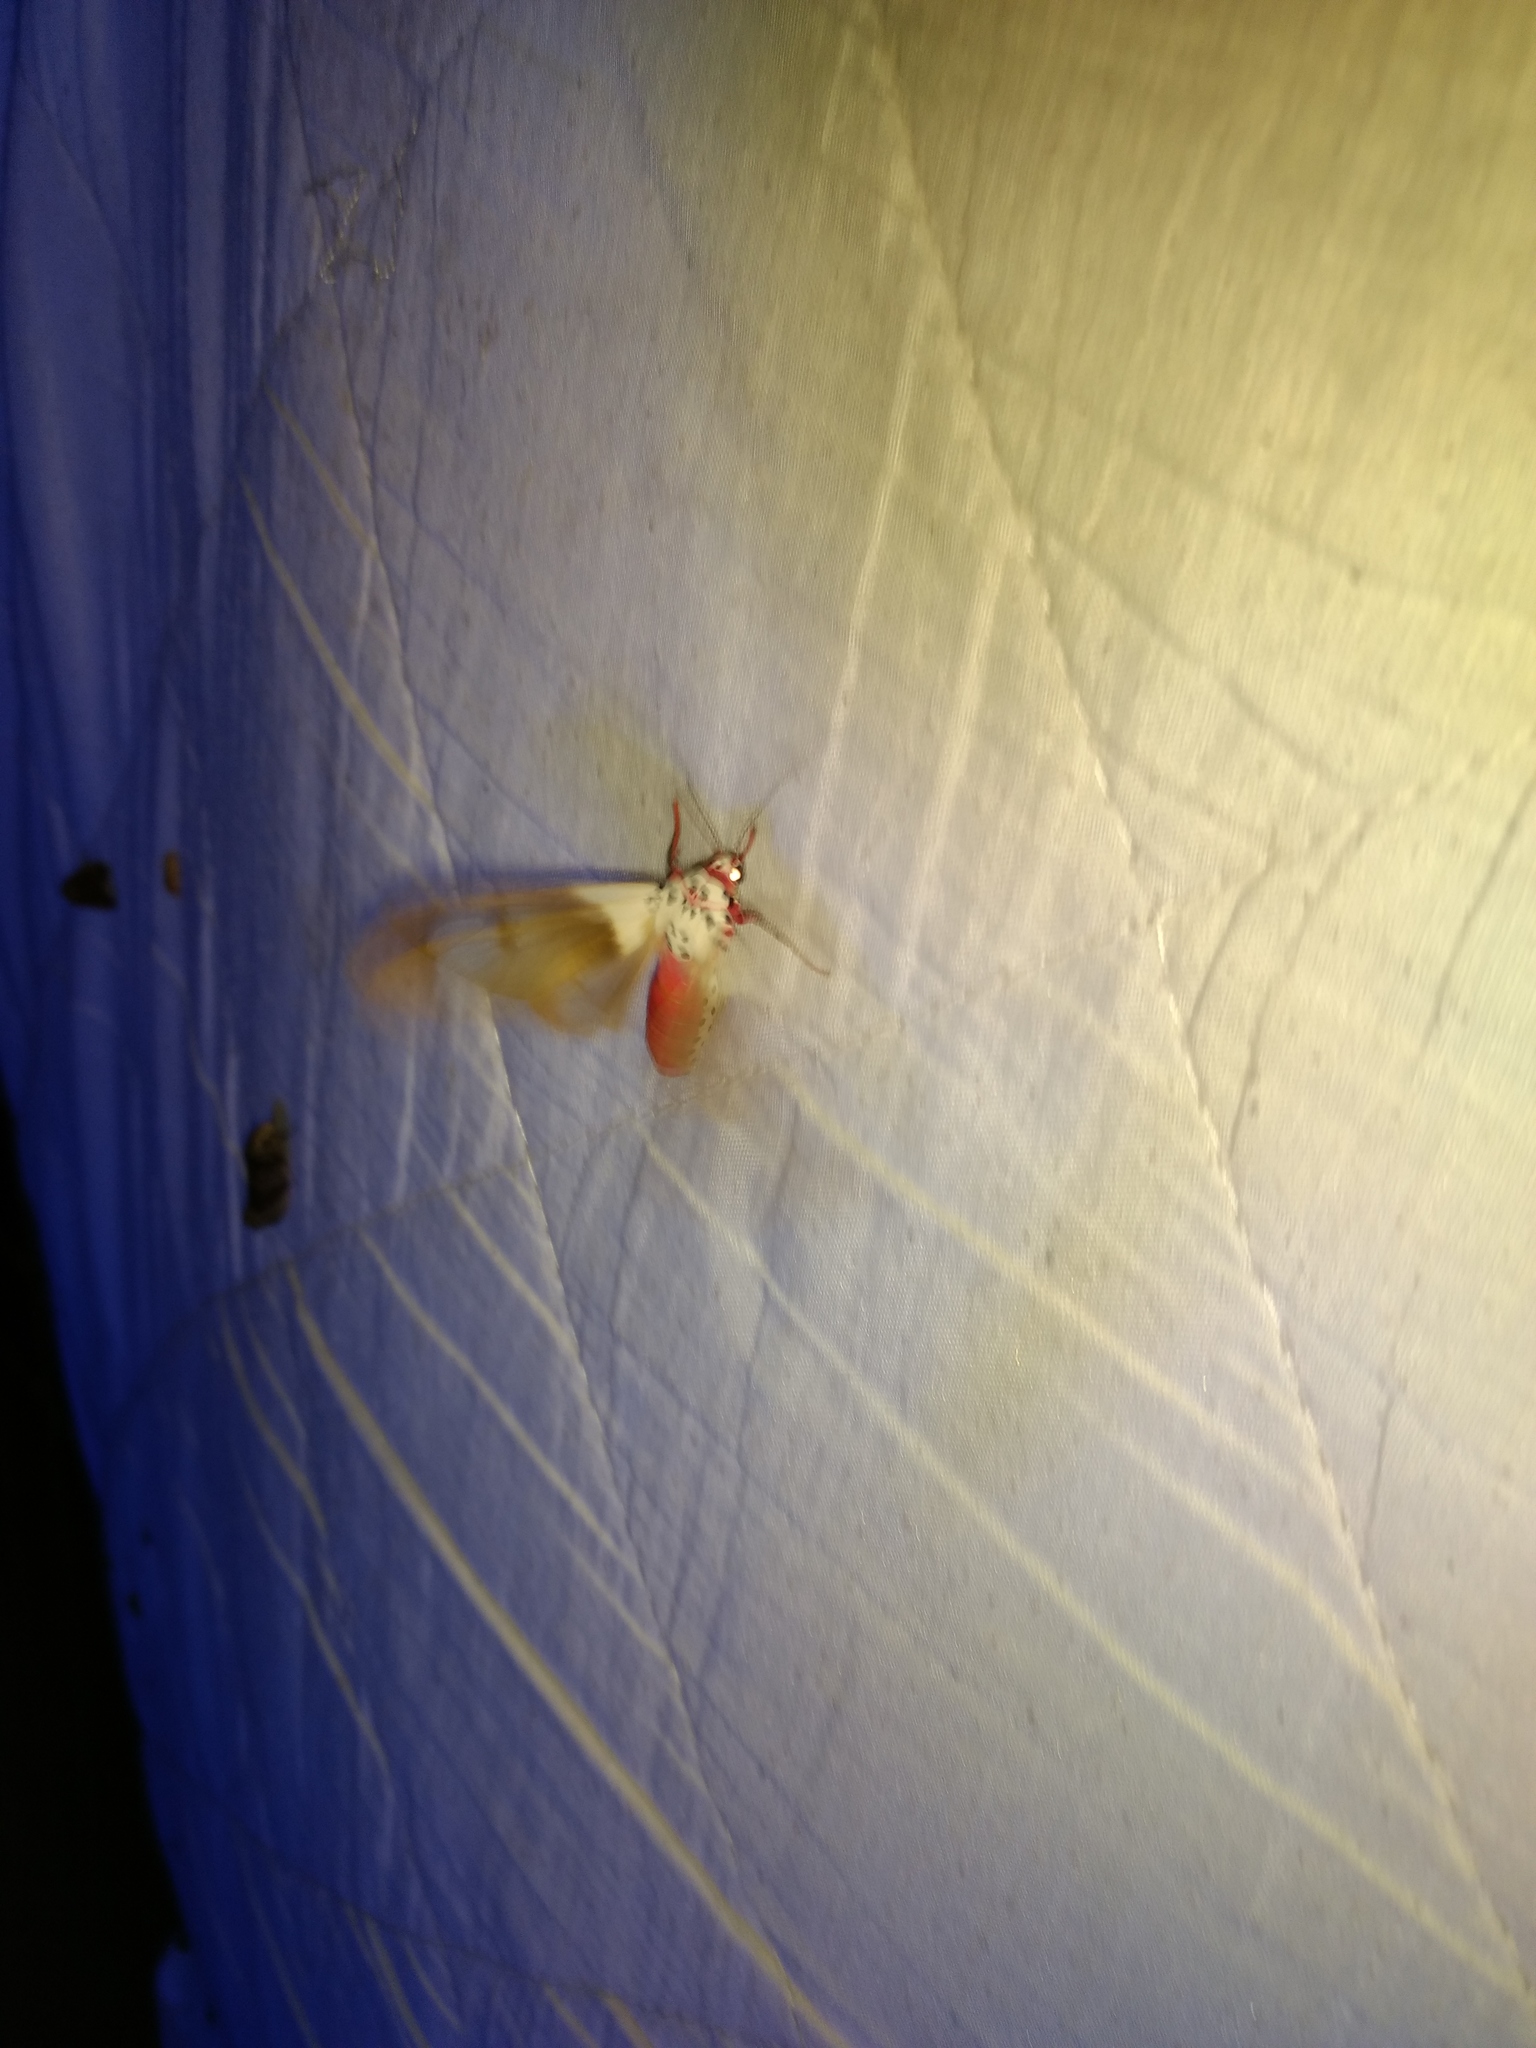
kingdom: Animalia
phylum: Arthropoda
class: Insecta
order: Lepidoptera
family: Erebidae
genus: Amerila
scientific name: Amerila crokeri
